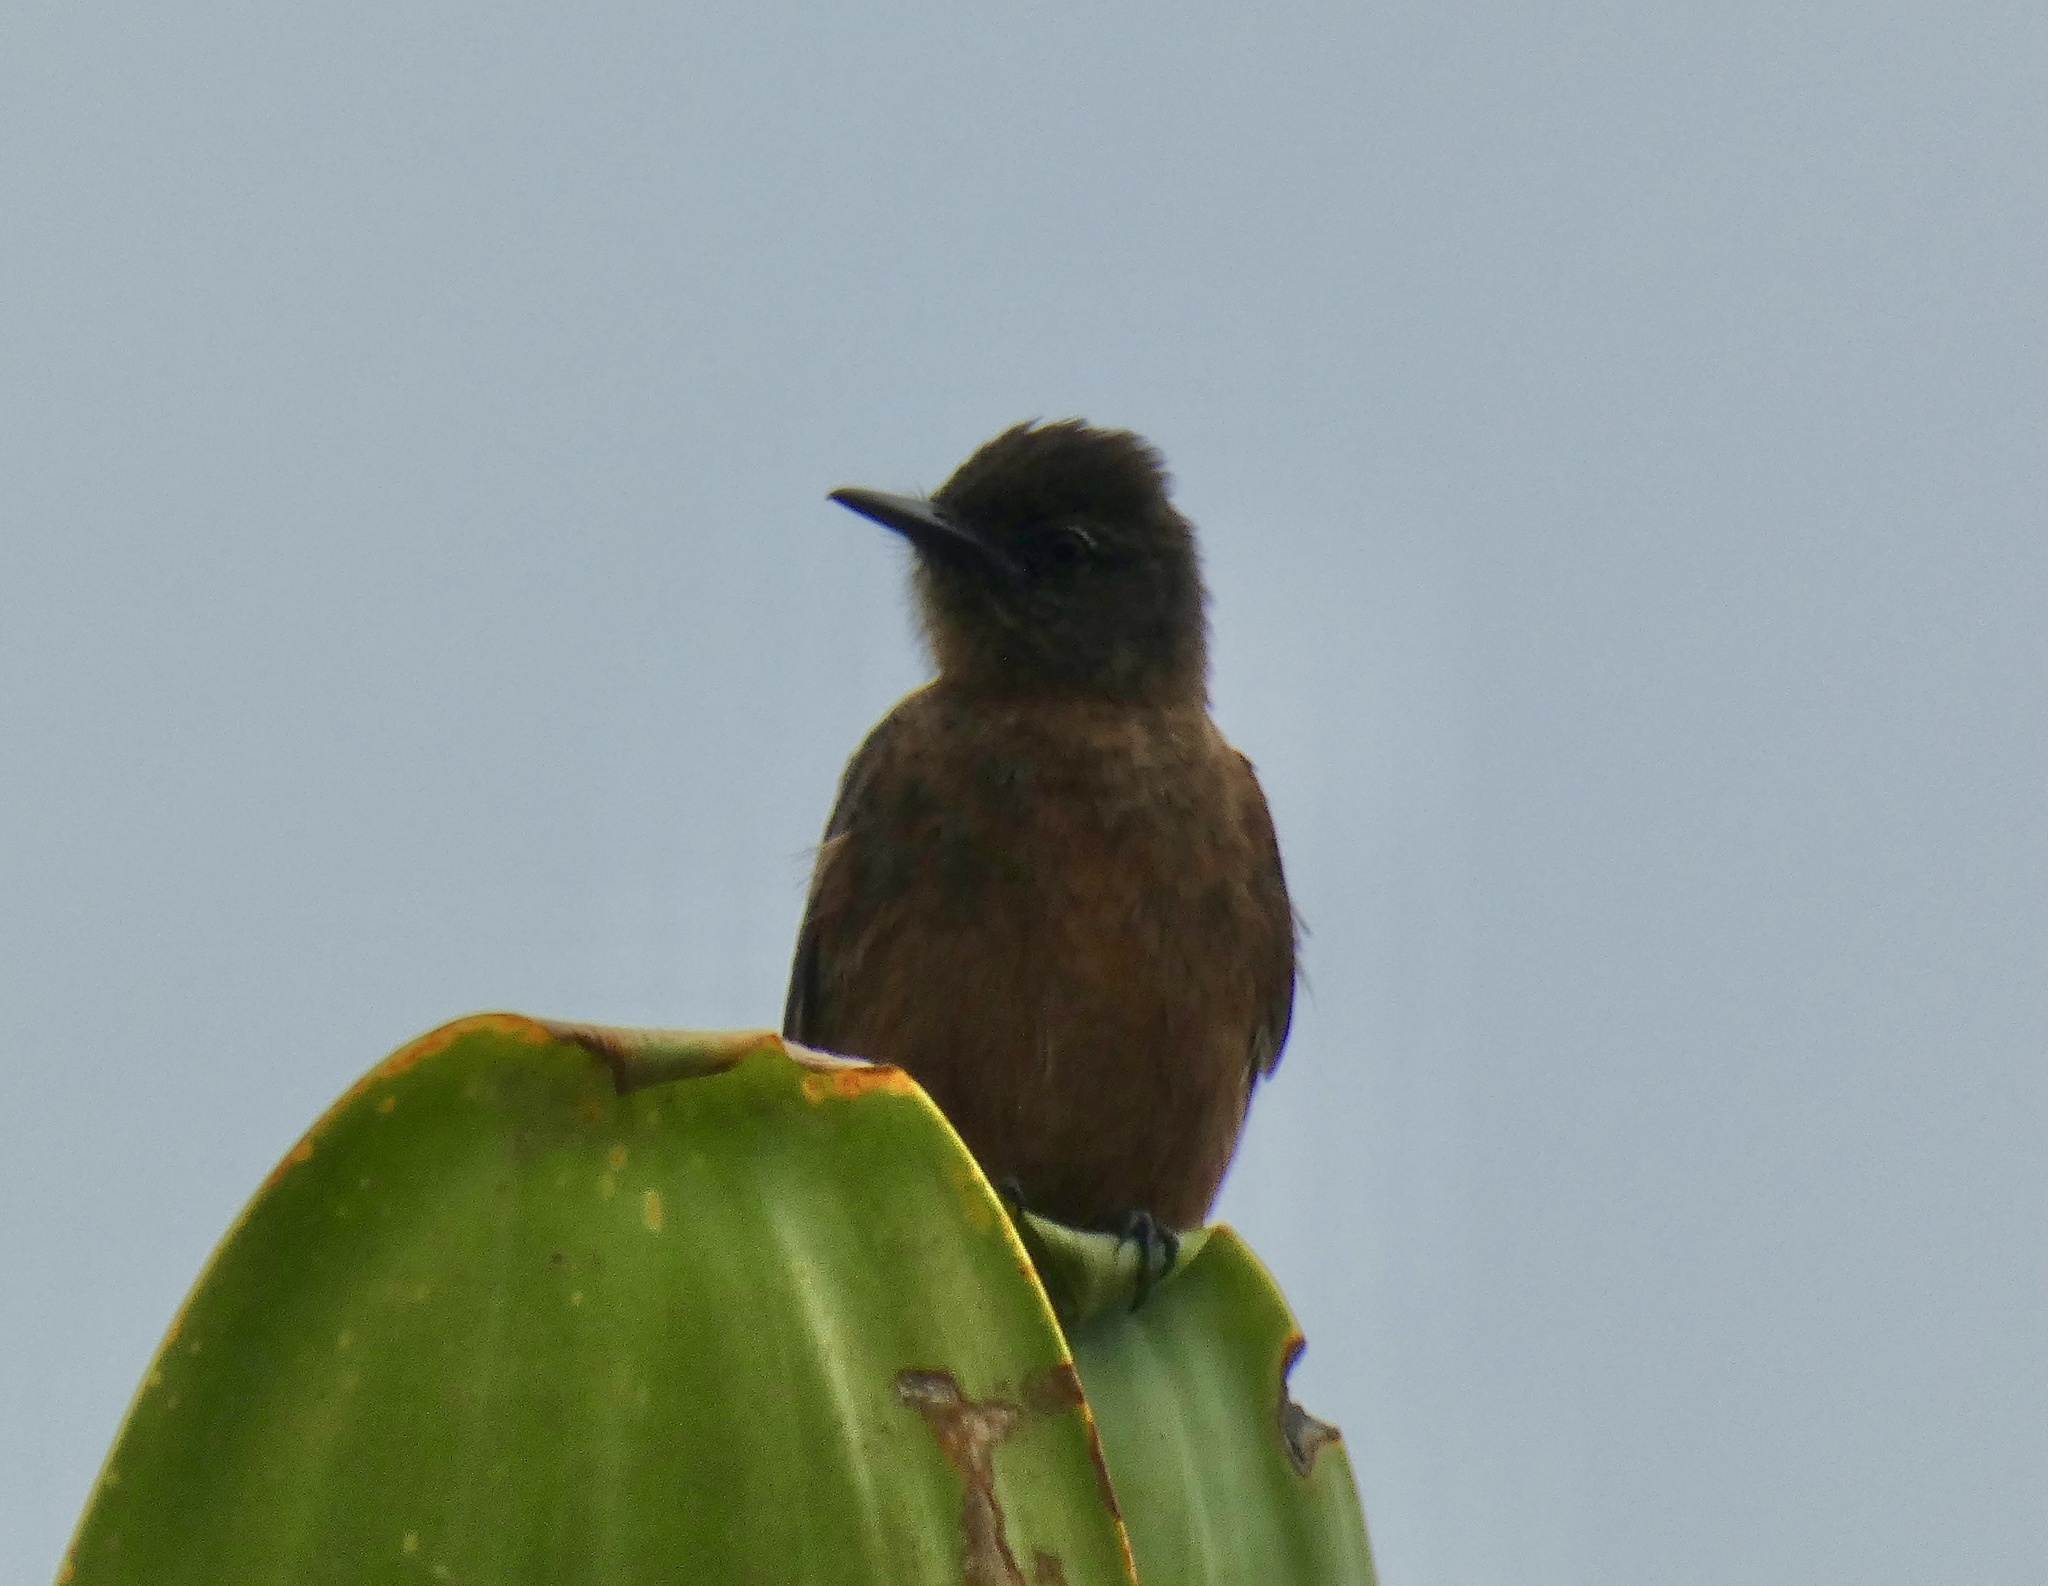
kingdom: Animalia
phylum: Chordata
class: Aves
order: Passeriformes
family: Tyrannidae
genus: Hirundinea
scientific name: Hirundinea ferruginea
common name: Cliff flycatcher
